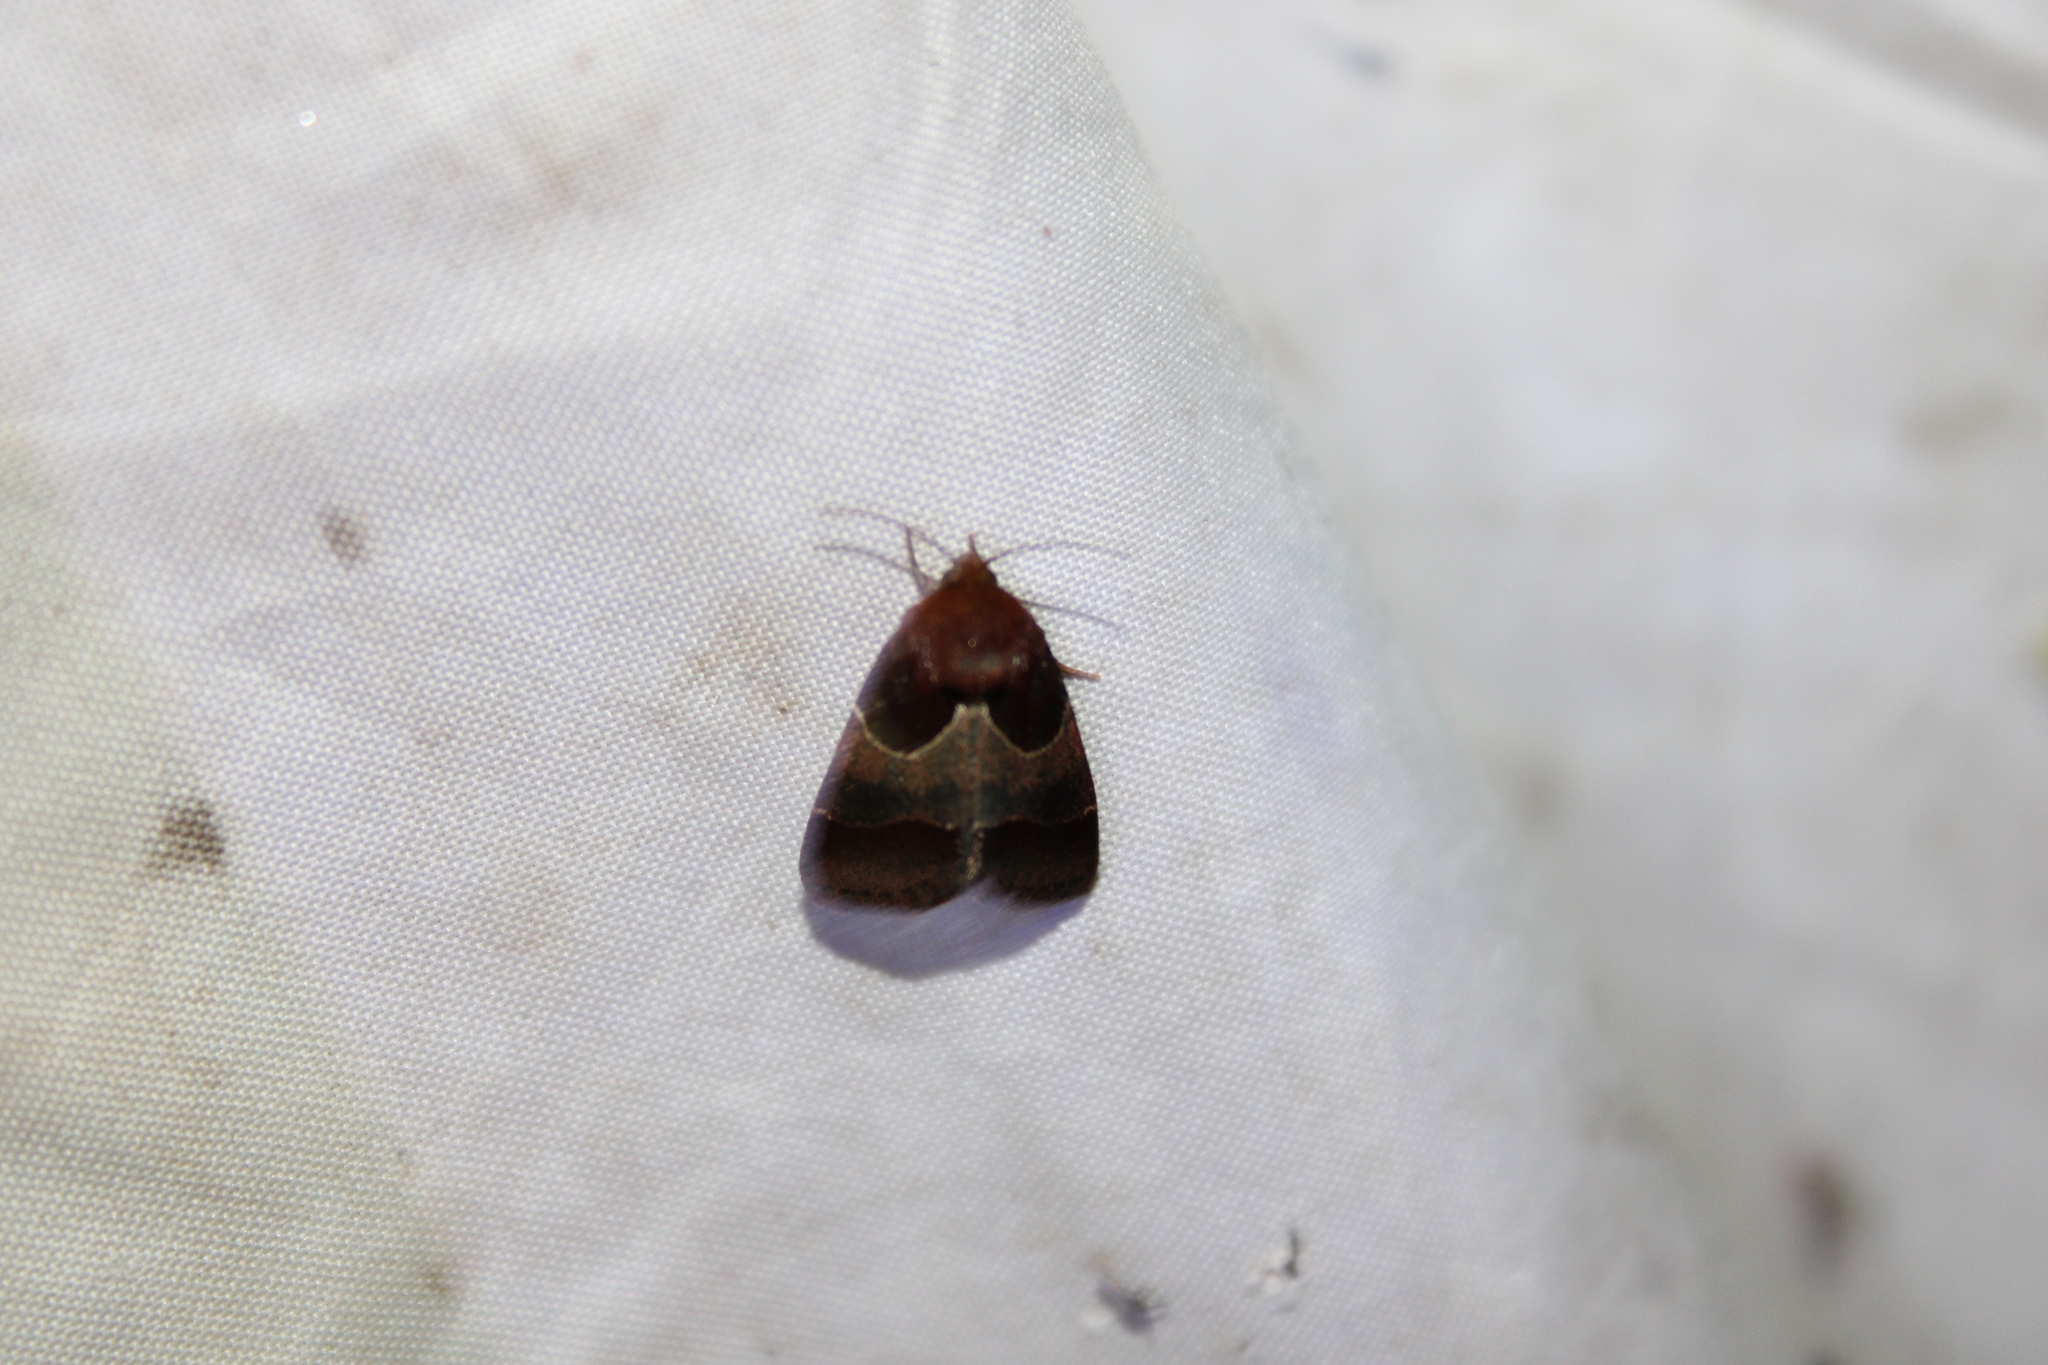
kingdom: Animalia
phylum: Arthropoda
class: Insecta
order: Lepidoptera
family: Noctuidae
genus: Schinia
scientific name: Schinia arcigera
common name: Arcigera flower moth
